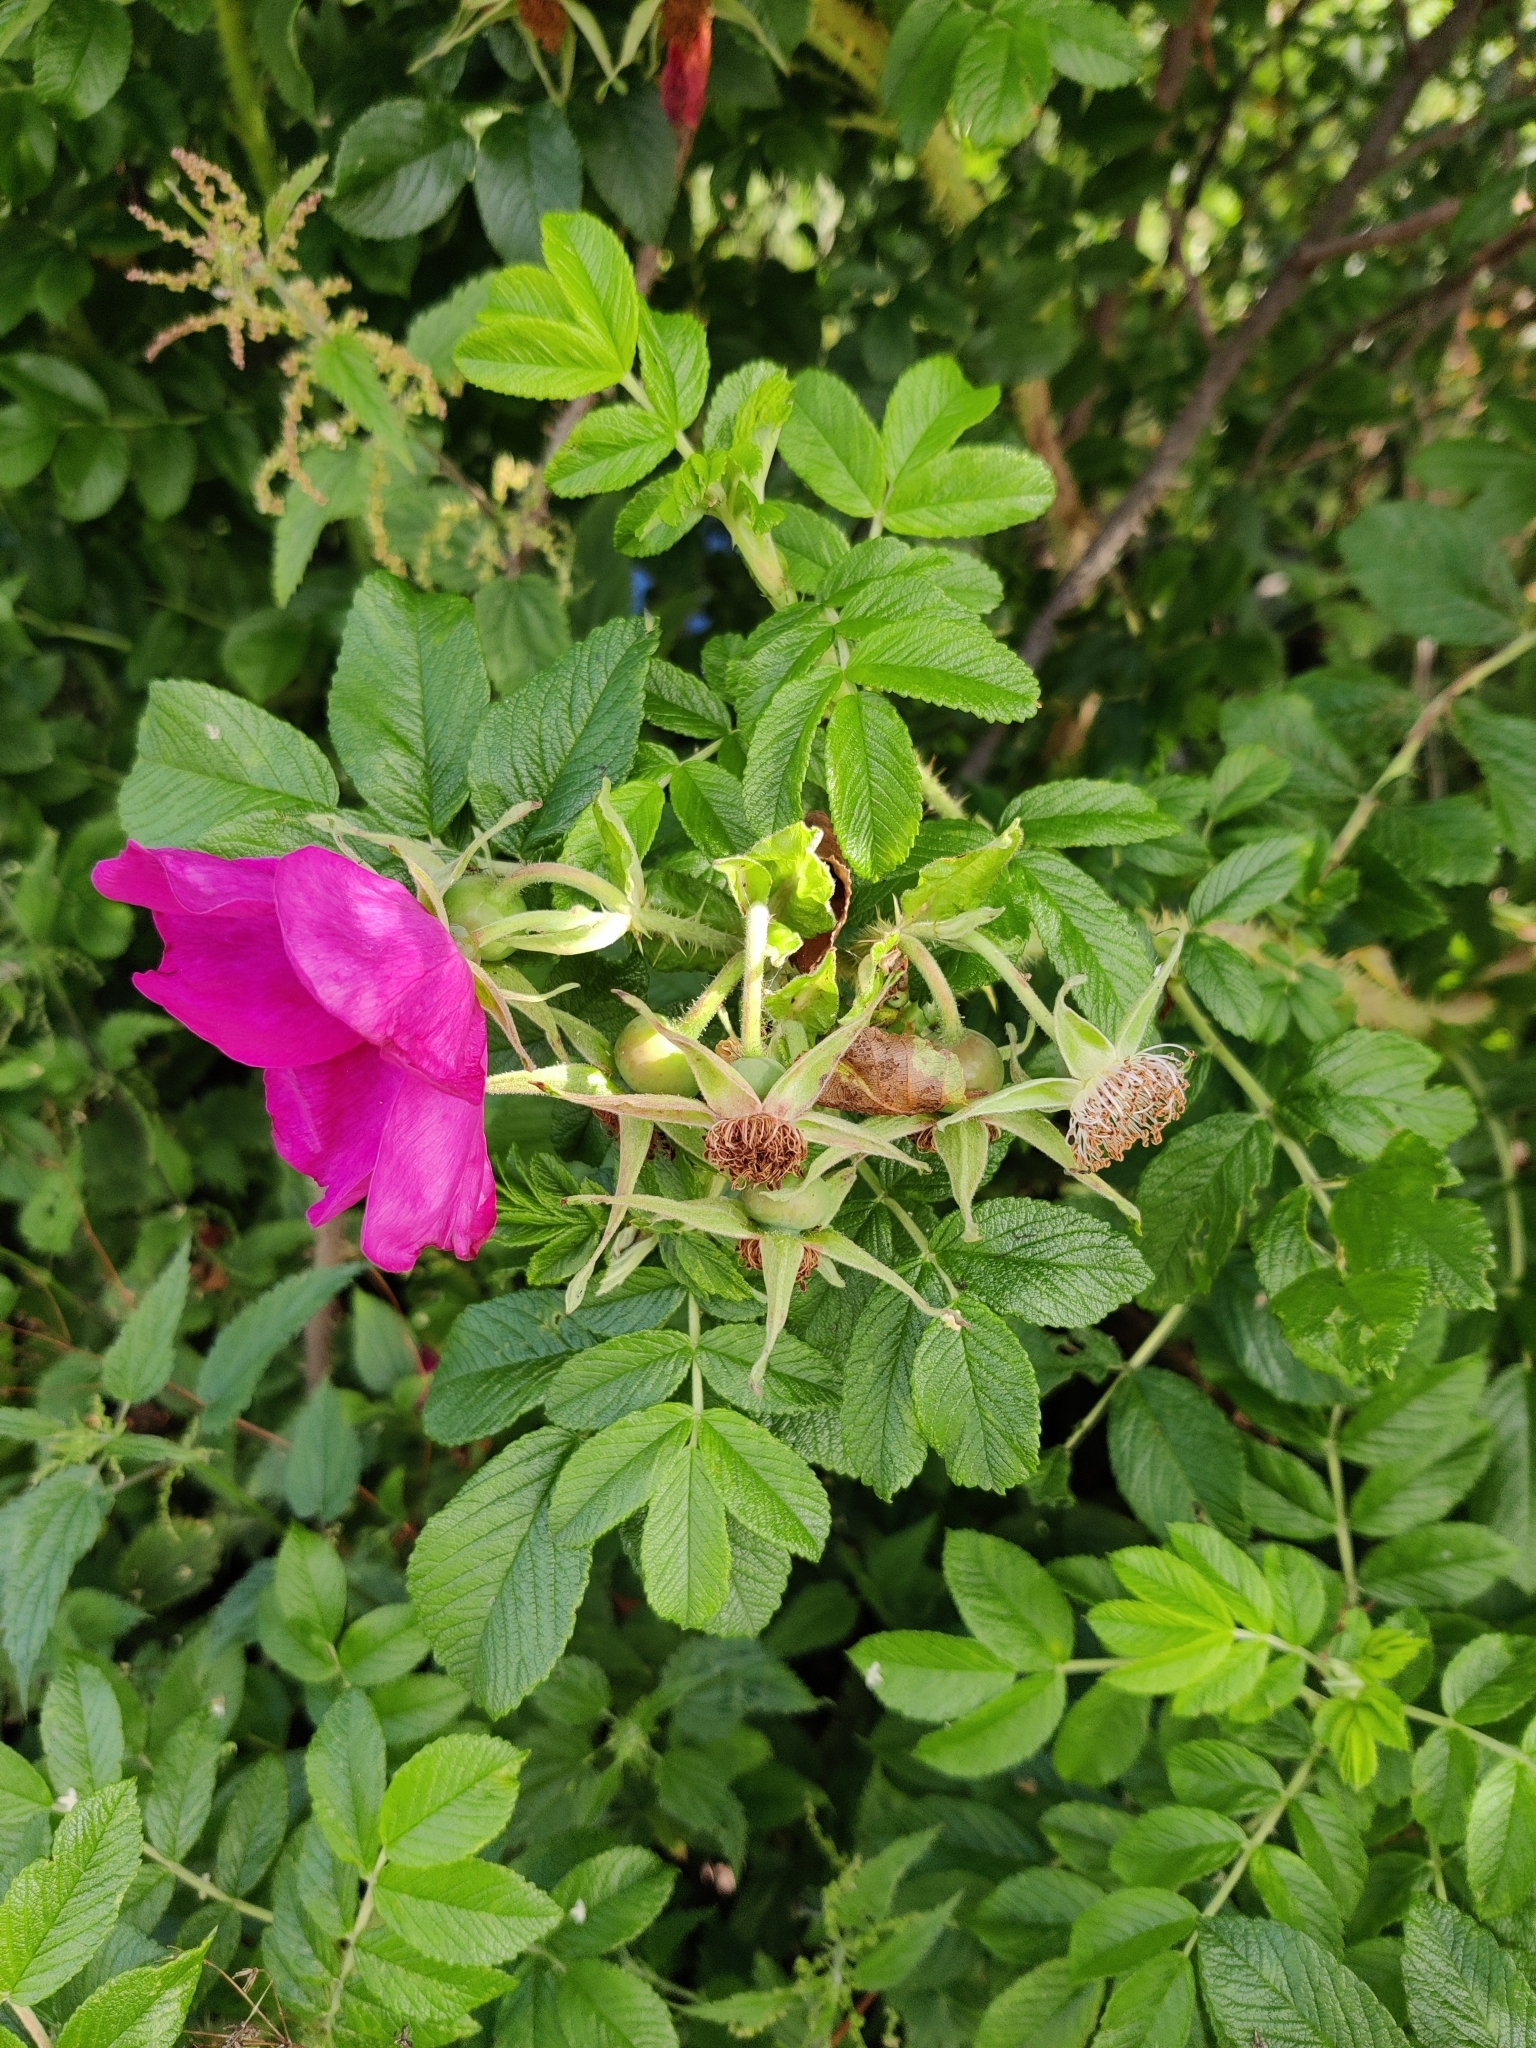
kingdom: Plantae
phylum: Tracheophyta
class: Magnoliopsida
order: Rosales
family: Rosaceae
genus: Rosa
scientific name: Rosa rugosa
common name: Japanese rose
